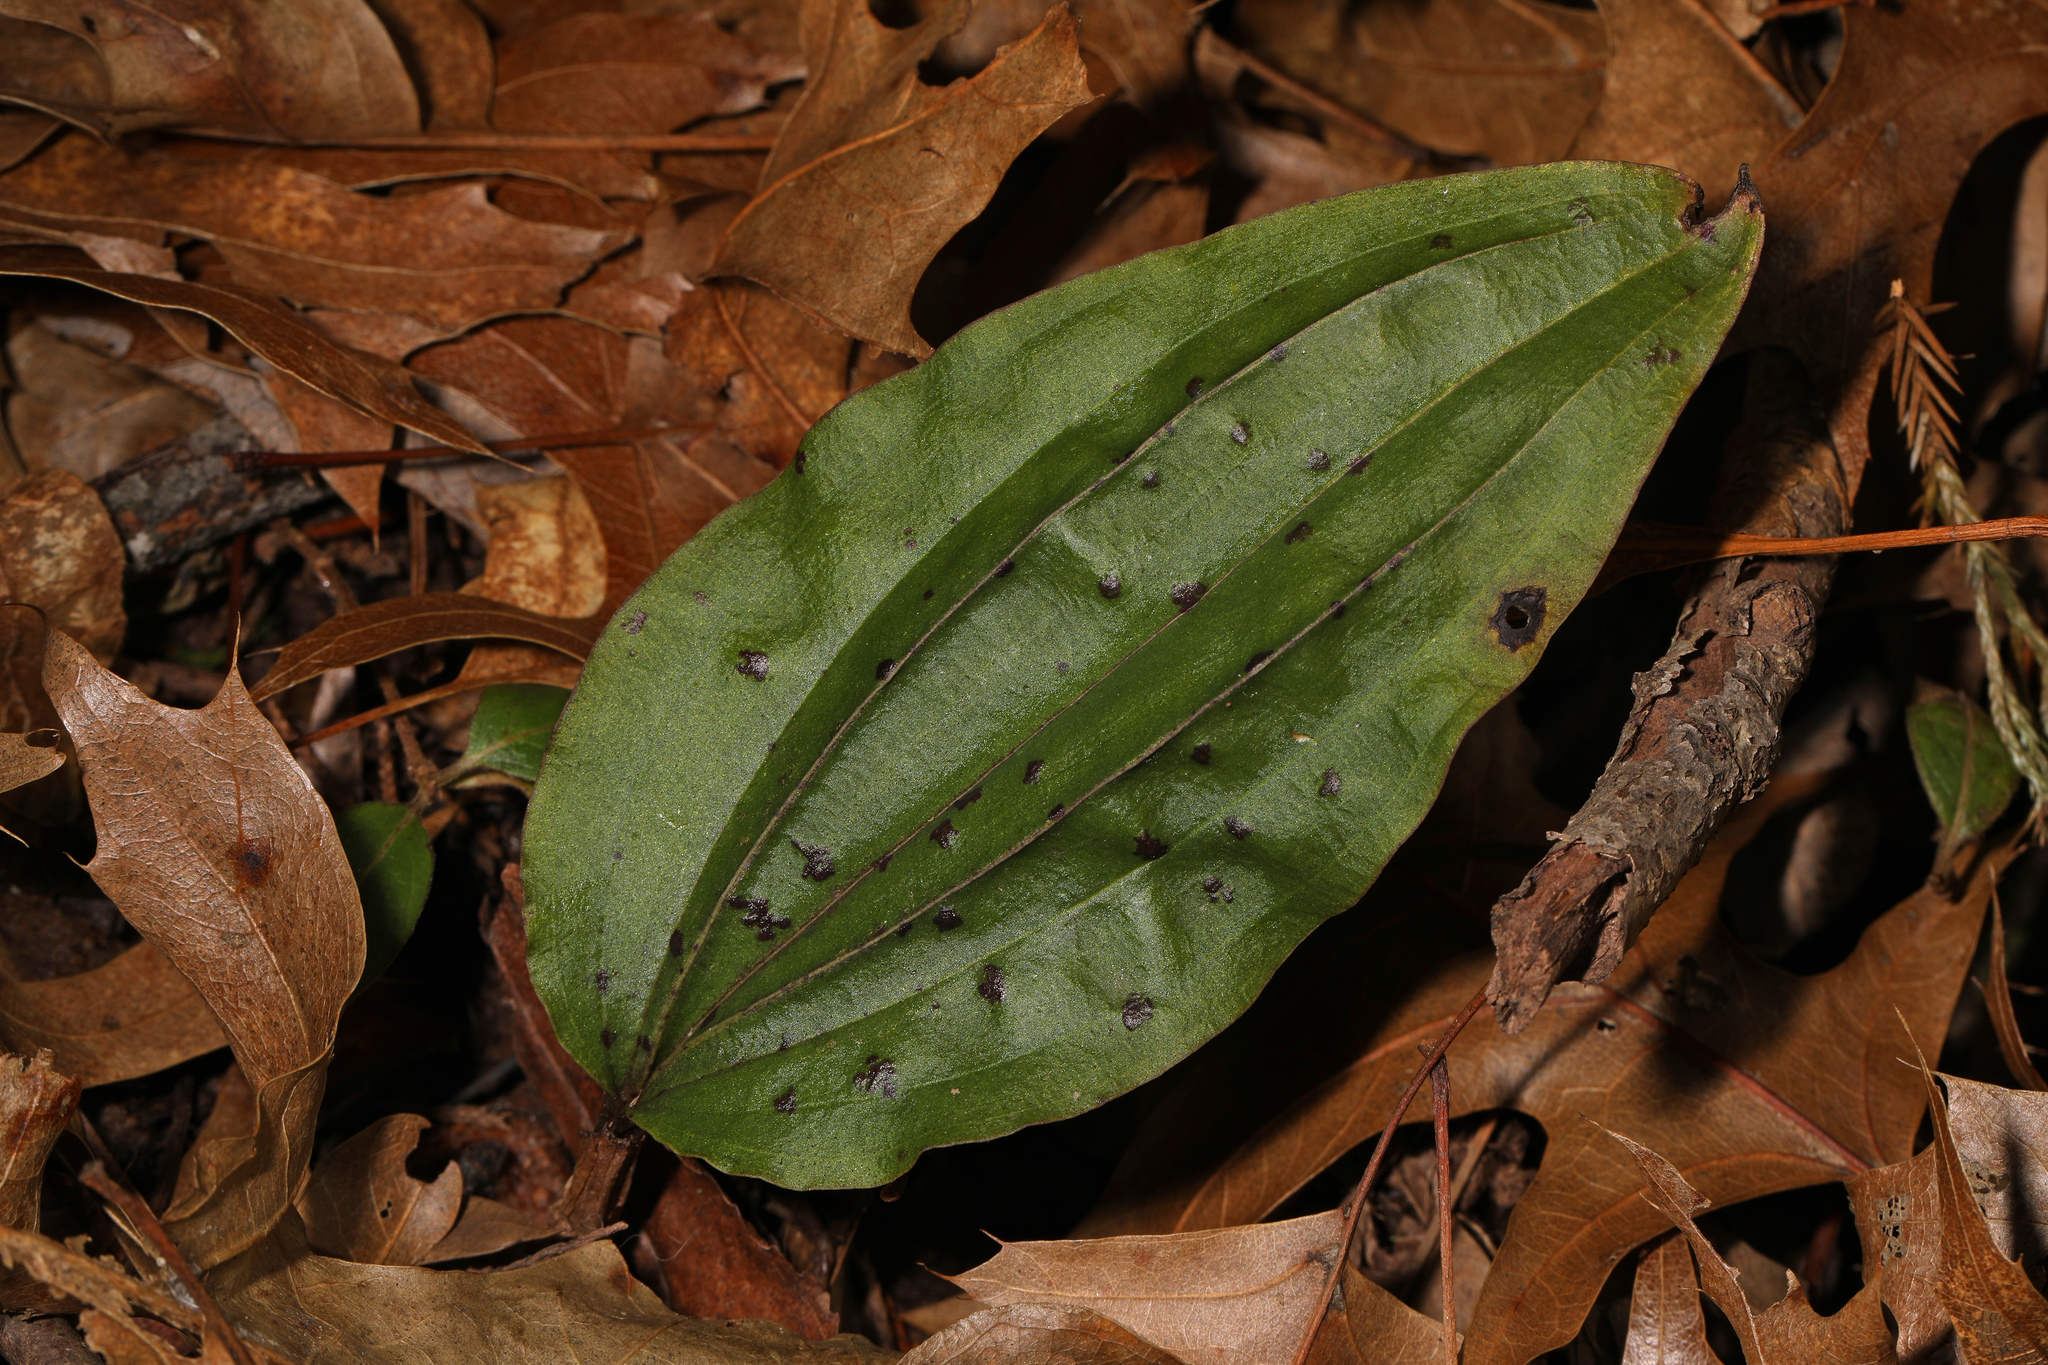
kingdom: Plantae
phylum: Tracheophyta
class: Liliopsida
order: Asparagales
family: Orchidaceae
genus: Tipularia
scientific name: Tipularia discolor
